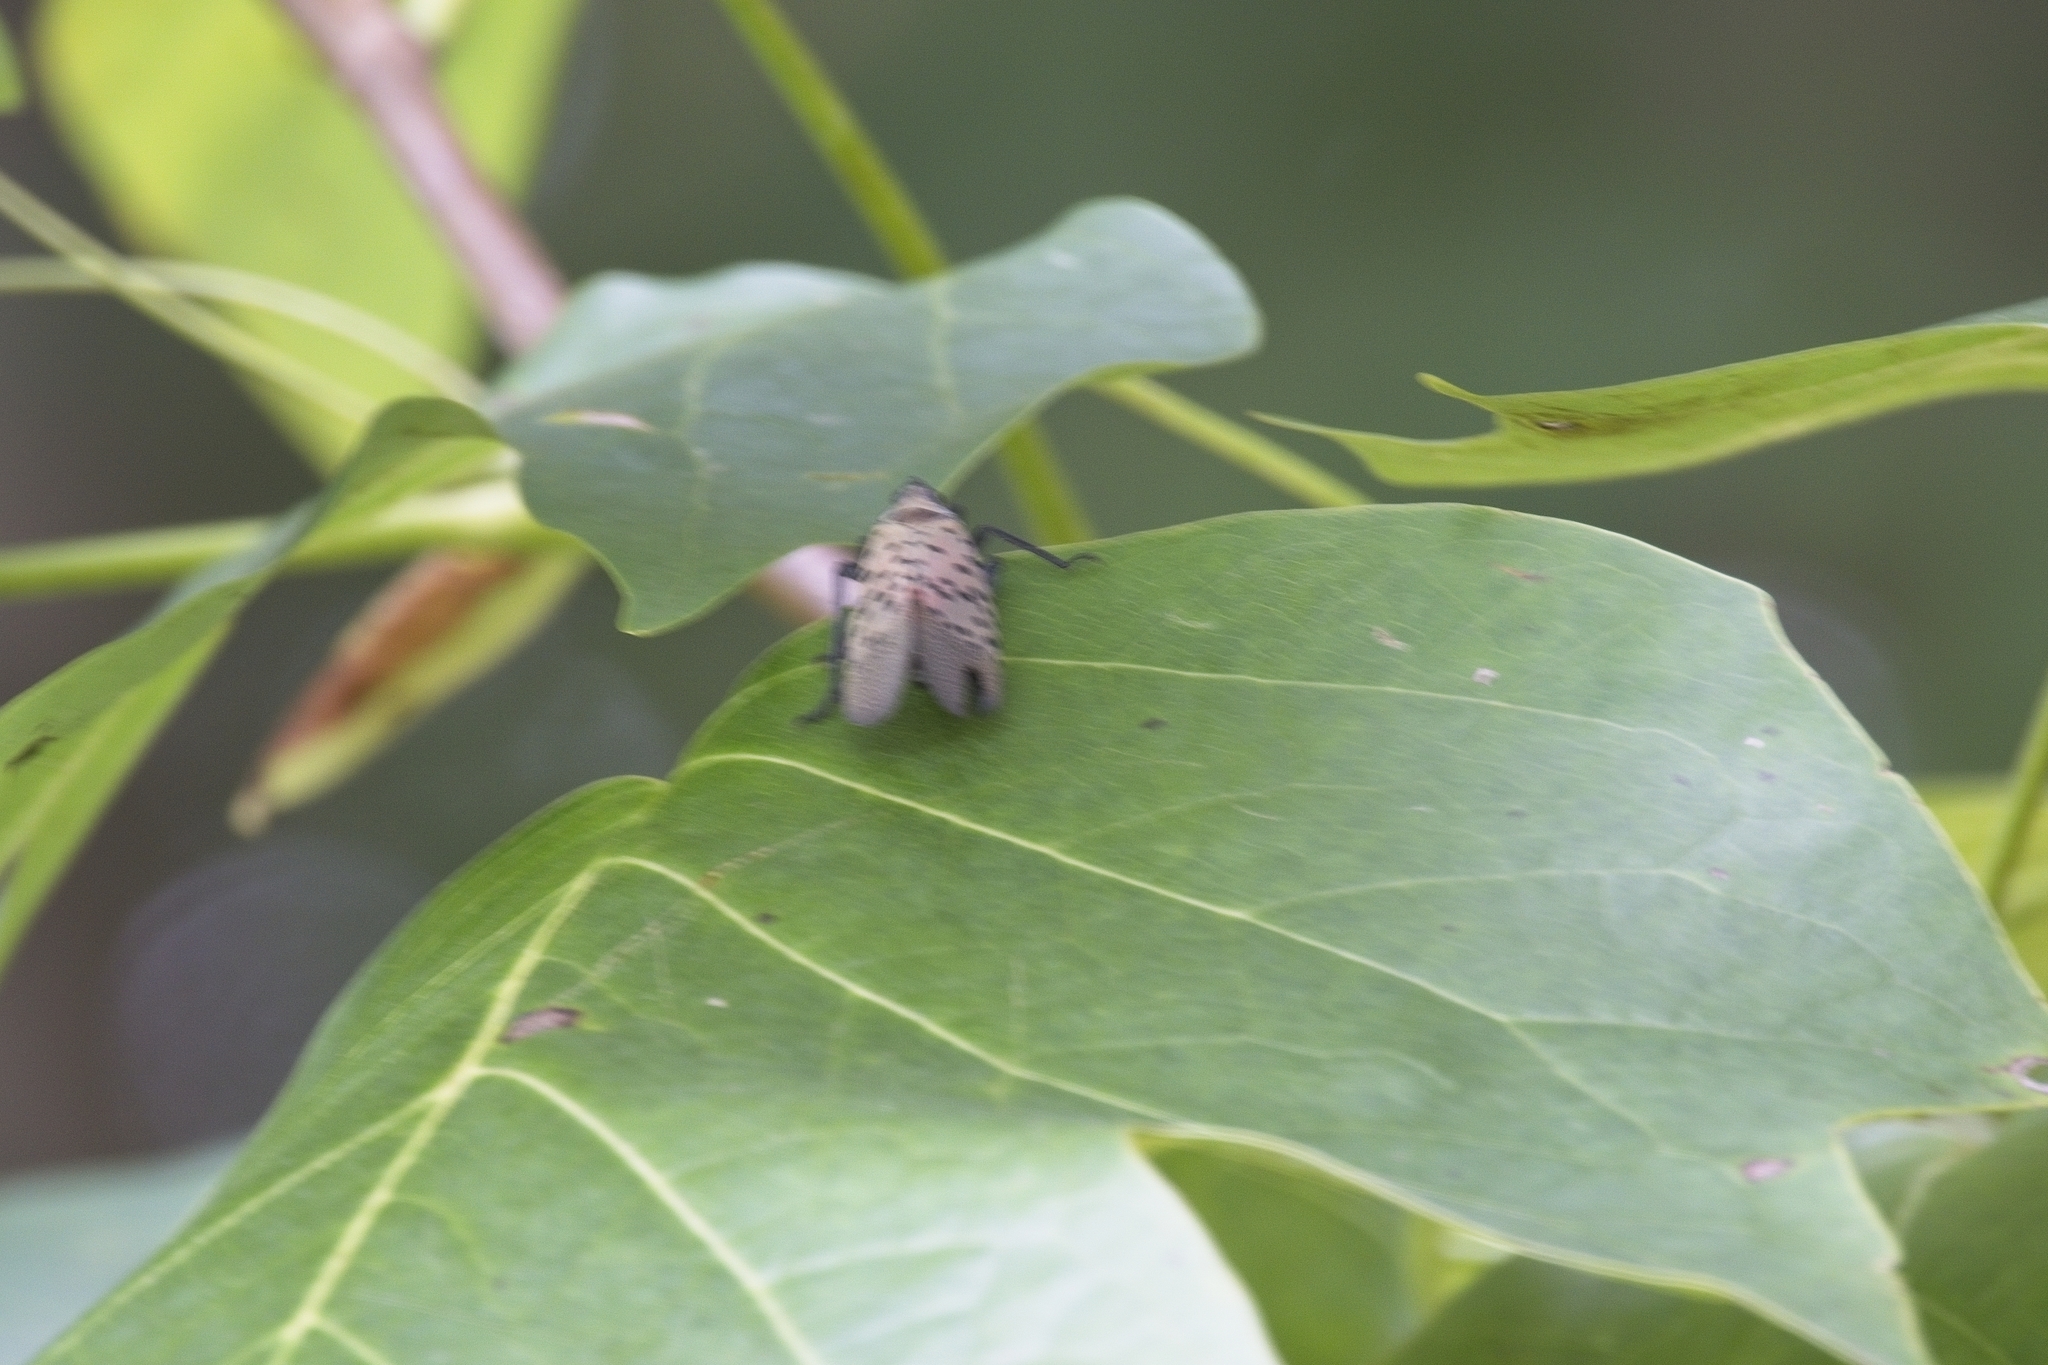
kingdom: Animalia
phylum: Arthropoda
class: Insecta
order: Hemiptera
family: Fulgoridae
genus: Lycorma
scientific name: Lycorma delicatula
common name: Spotted lanternfly
